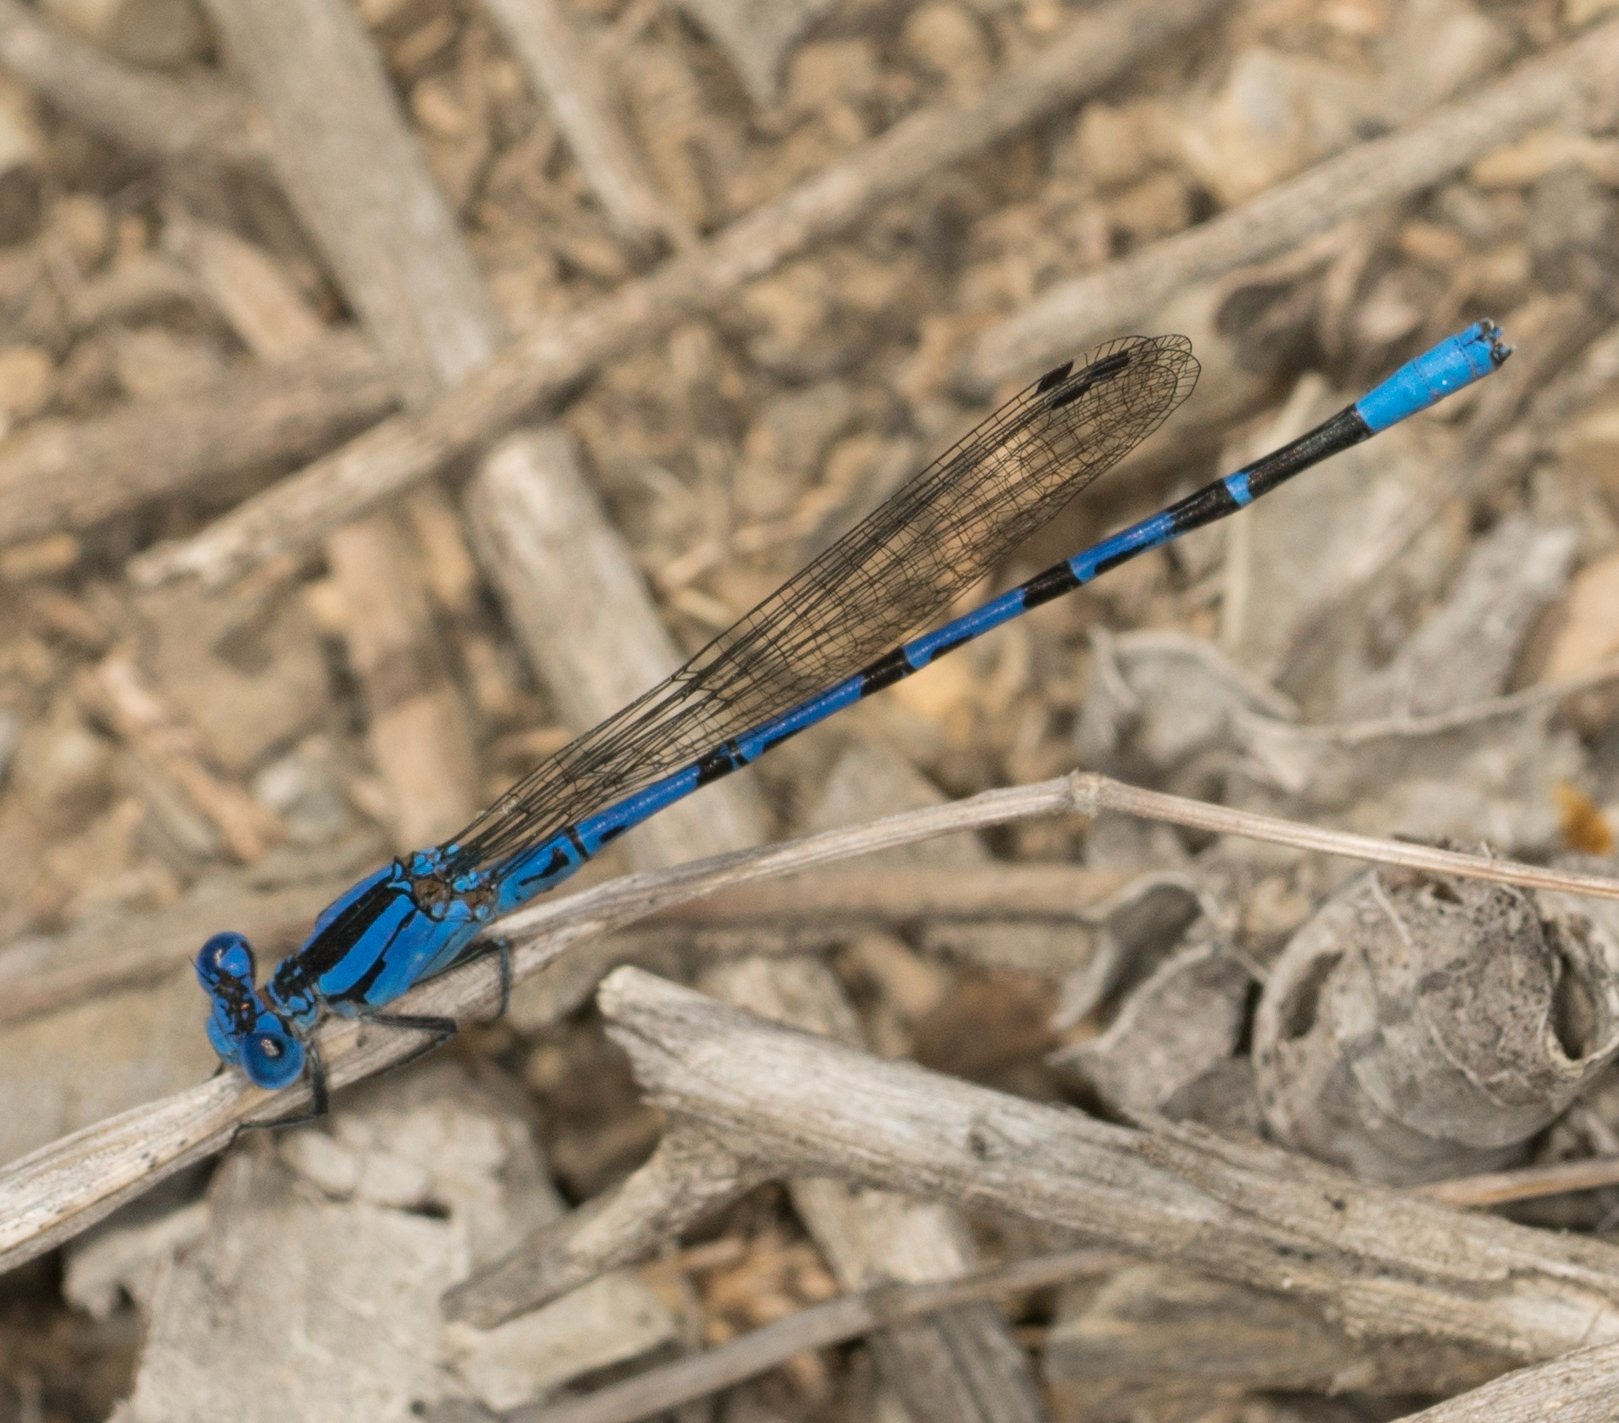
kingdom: Animalia
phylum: Arthropoda
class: Insecta
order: Odonata
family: Coenagrionidae
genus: Argia
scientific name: Argia vivida
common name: Vivid dancer
